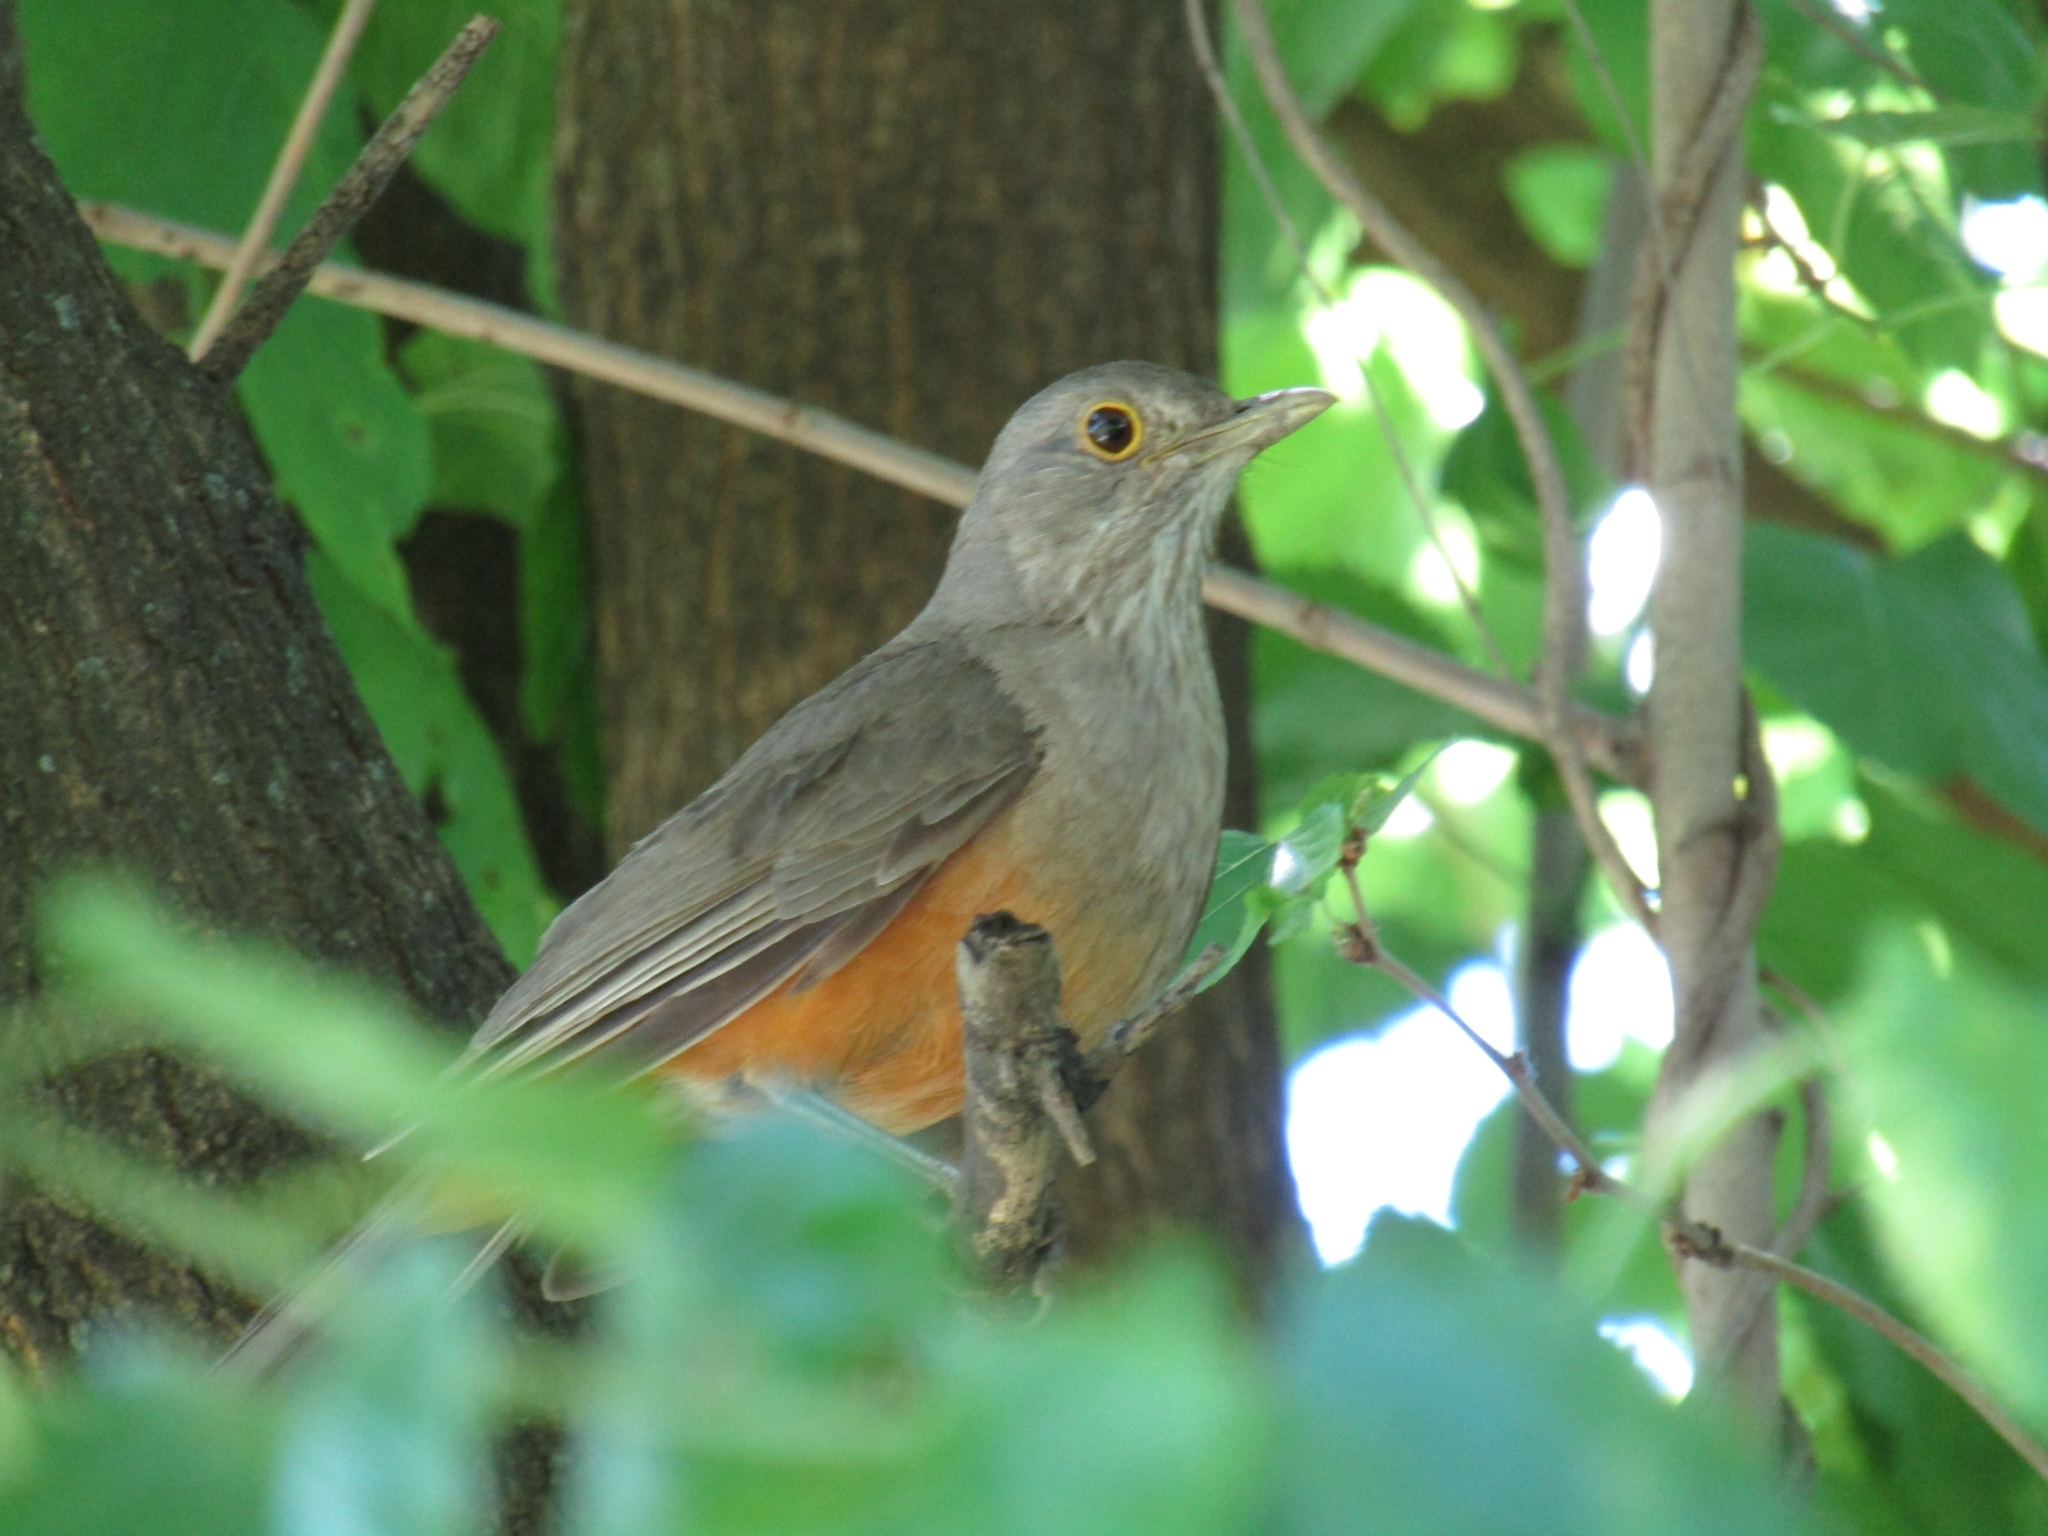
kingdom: Animalia
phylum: Chordata
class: Aves
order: Passeriformes
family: Turdidae
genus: Turdus
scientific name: Turdus rufiventris
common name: Rufous-bellied thrush
